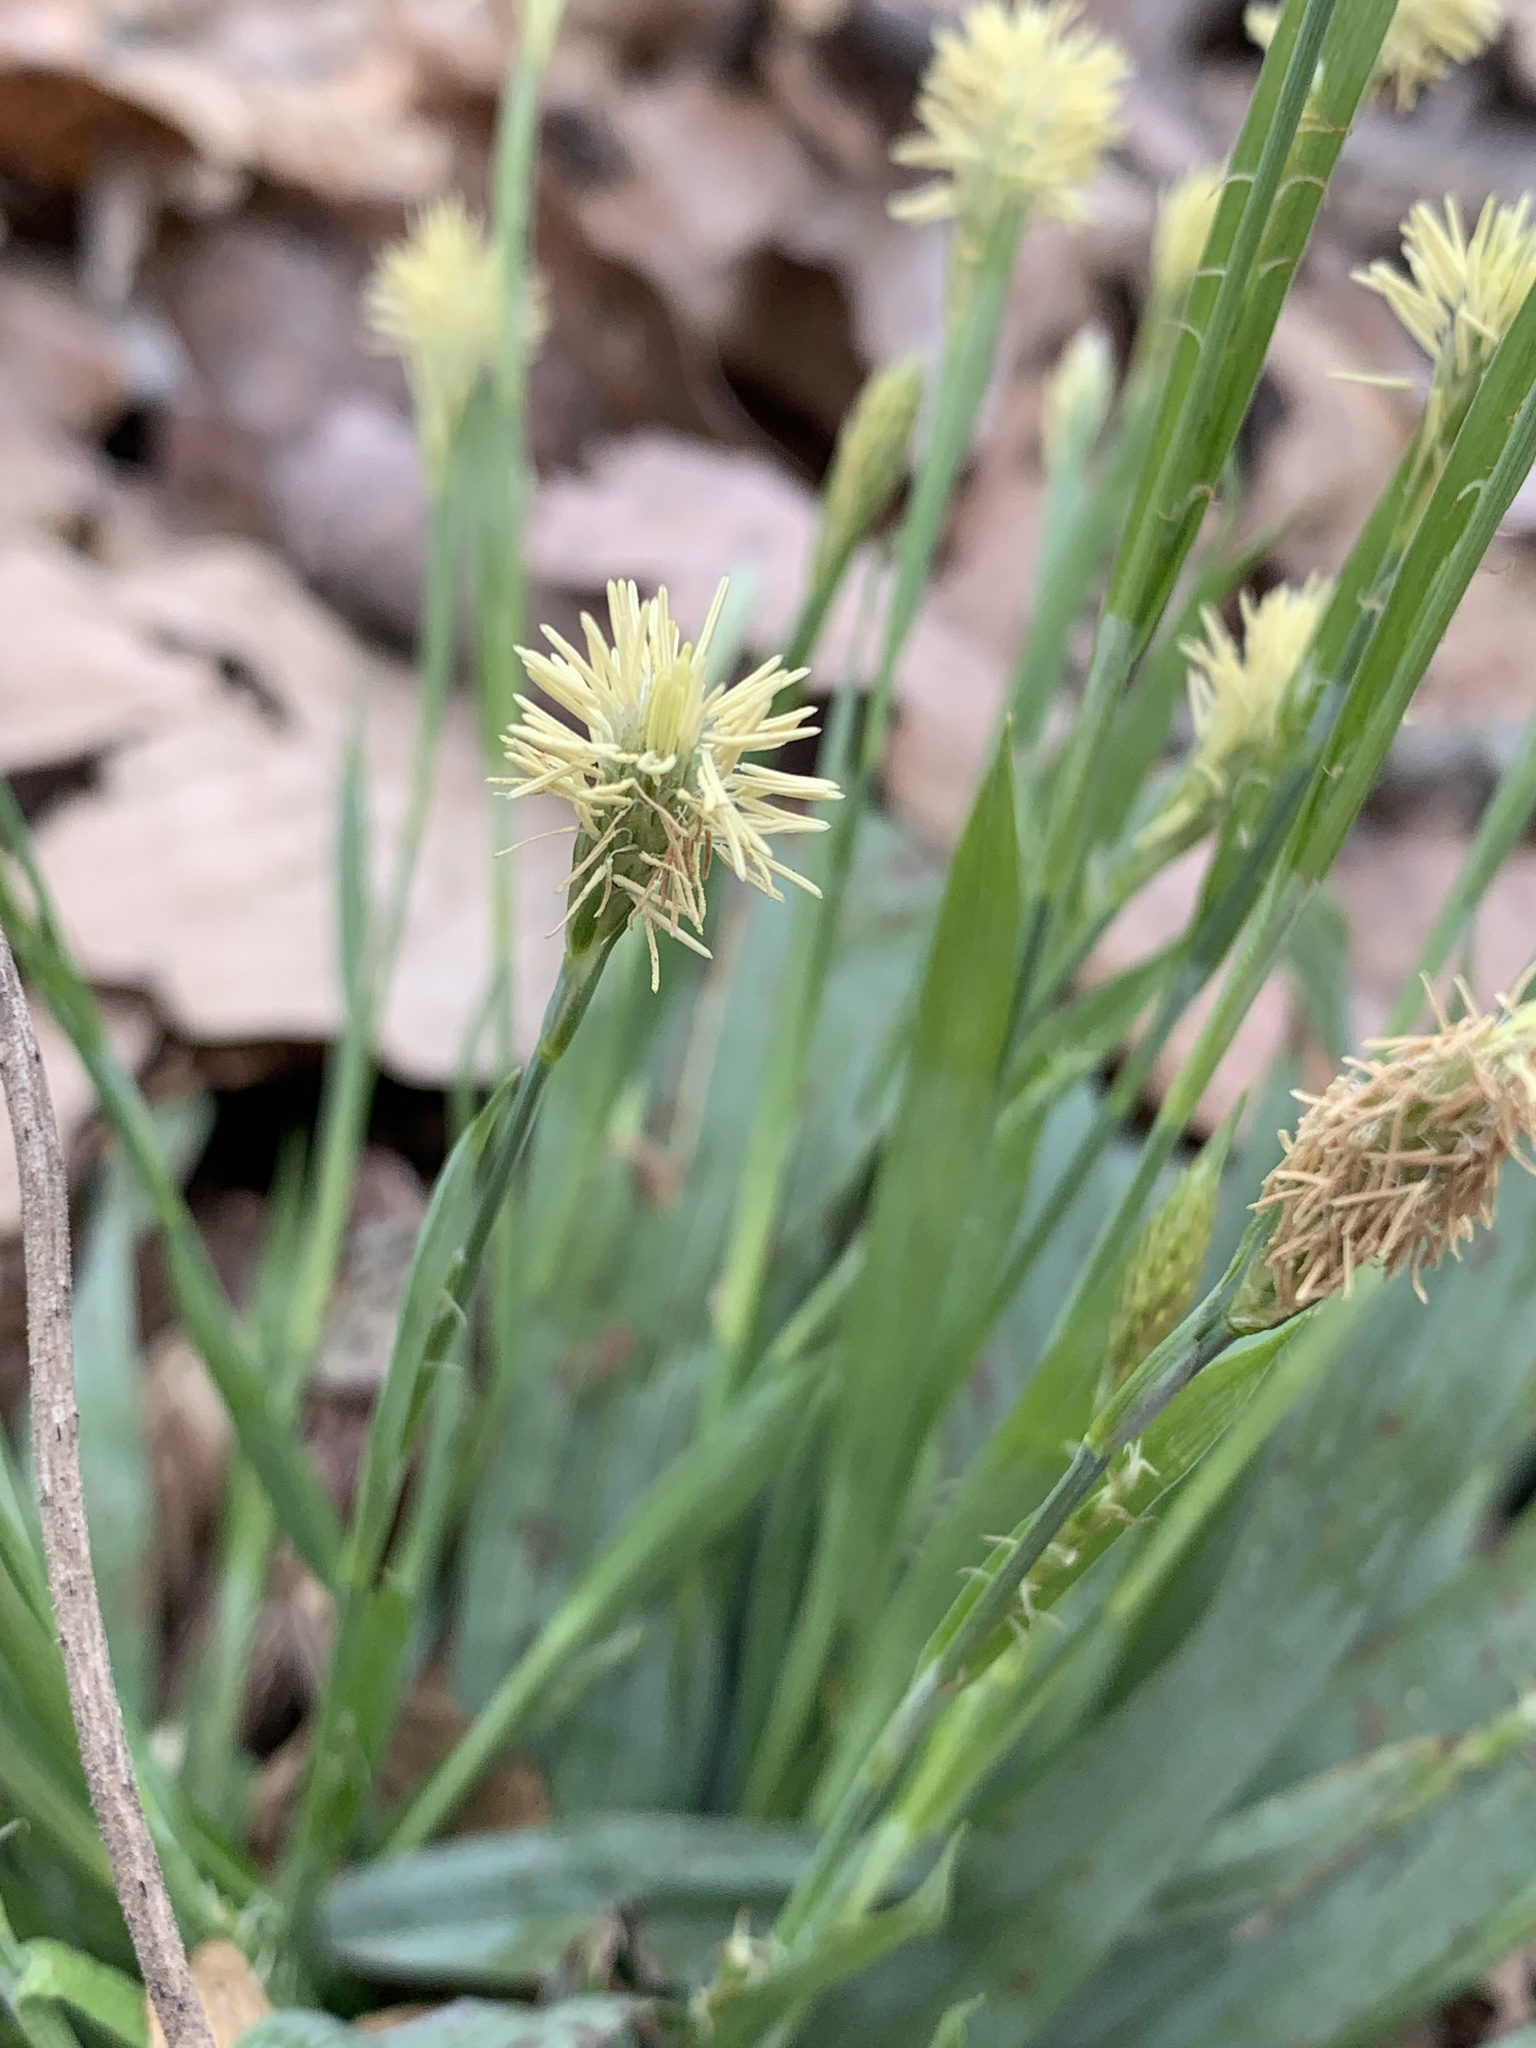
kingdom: Plantae
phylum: Tracheophyta
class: Liliopsida
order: Poales
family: Cyperaceae
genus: Carex
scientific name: Carex platyphylla
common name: Broad-leaved sedge
